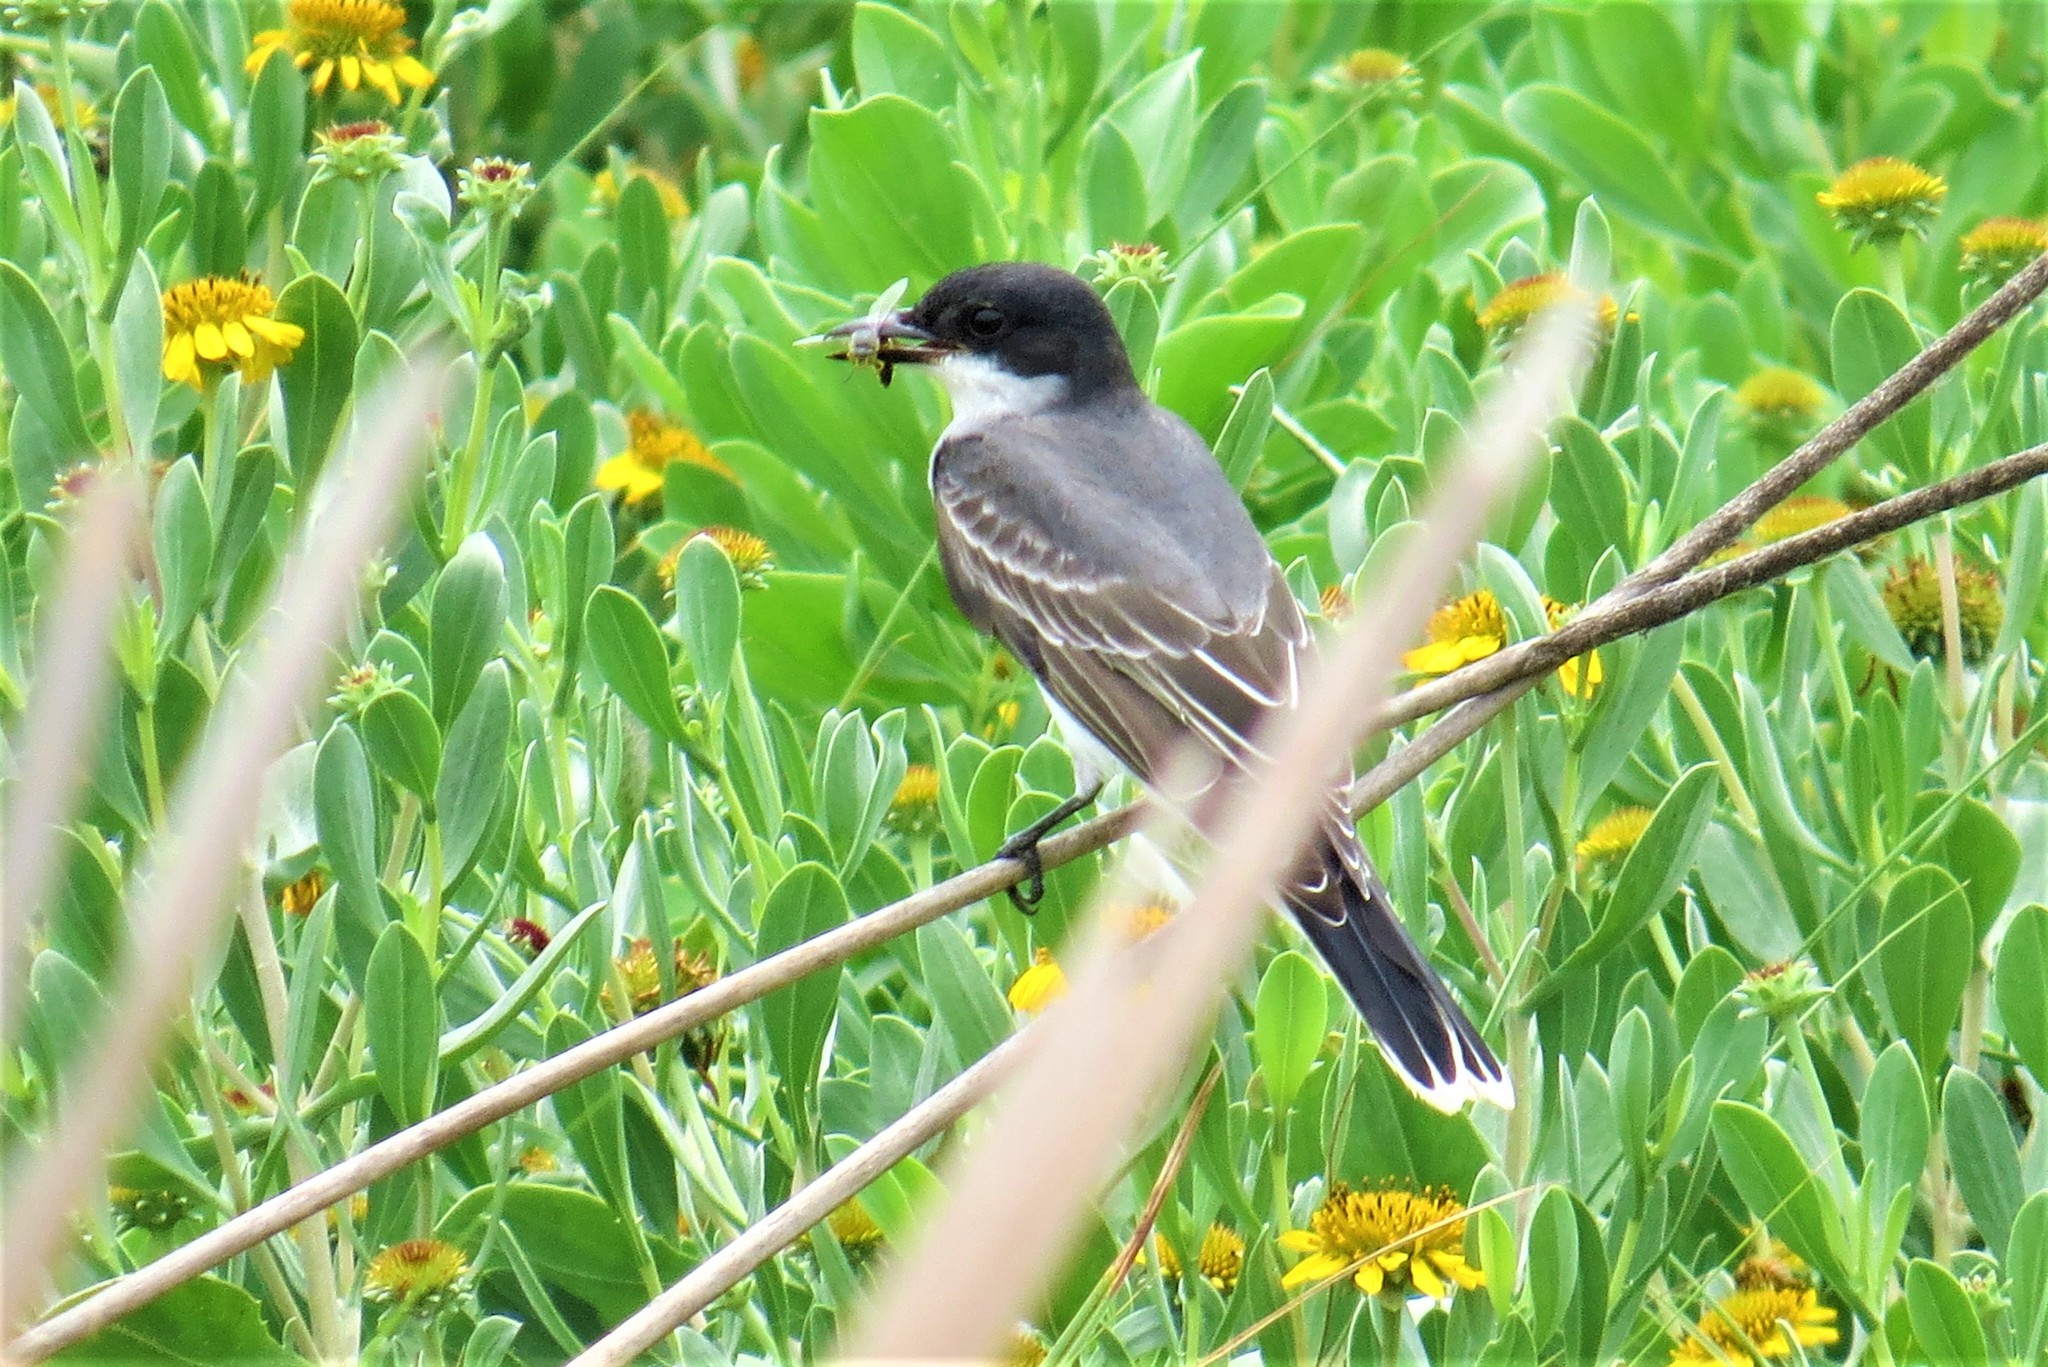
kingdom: Animalia
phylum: Chordata
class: Aves
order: Passeriformes
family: Tyrannidae
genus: Tyrannus
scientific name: Tyrannus tyrannus
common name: Eastern kingbird
